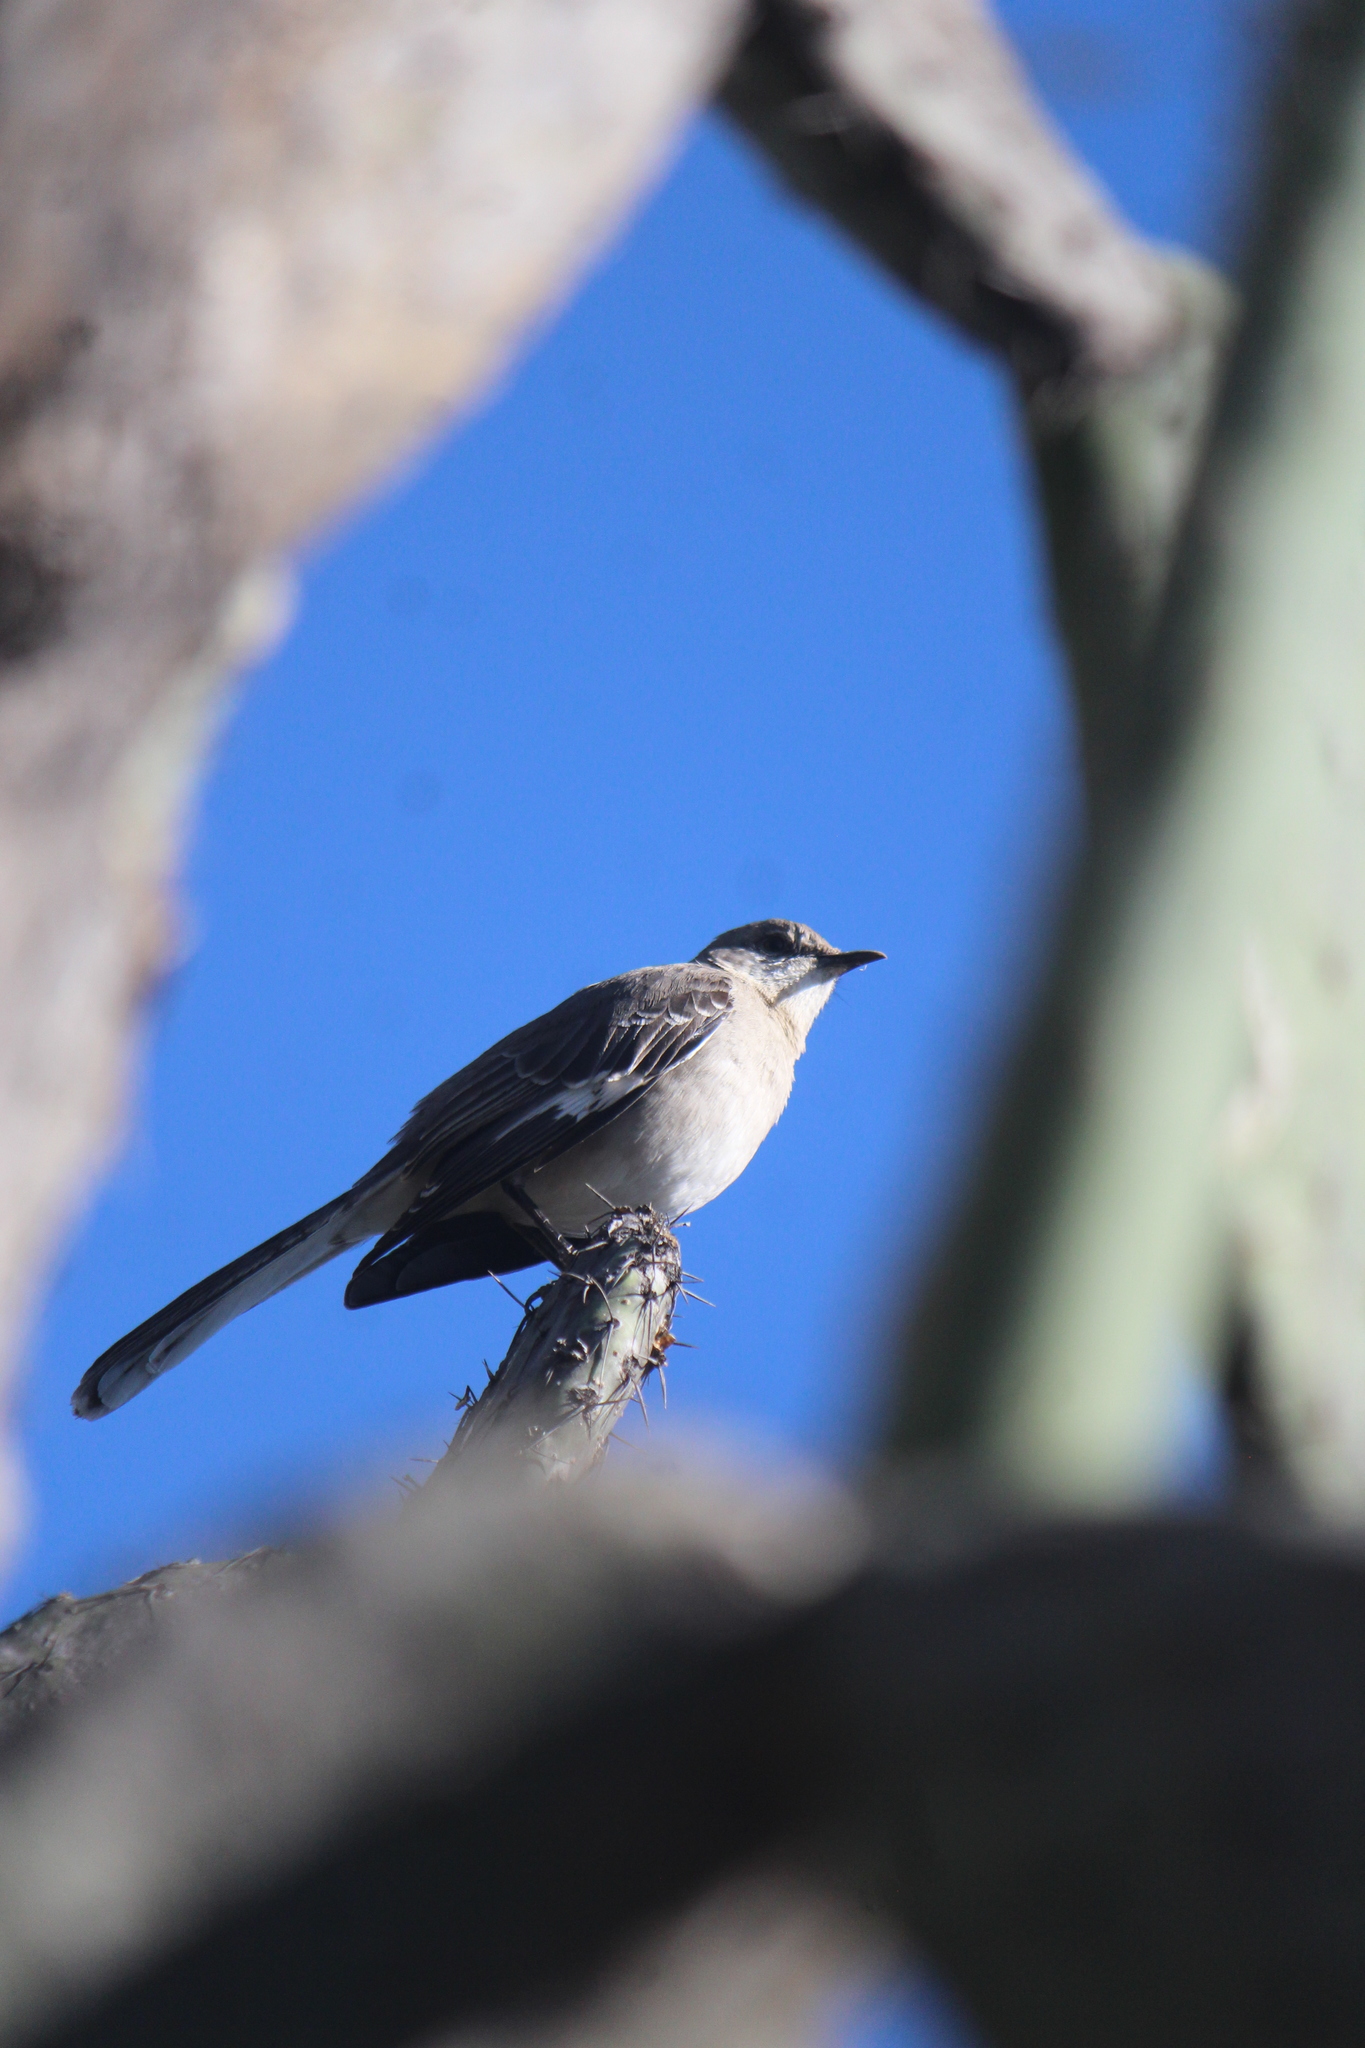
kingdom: Animalia
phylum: Chordata
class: Aves
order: Passeriformes
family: Mimidae
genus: Mimus
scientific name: Mimus polyglottos
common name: Northern mockingbird
